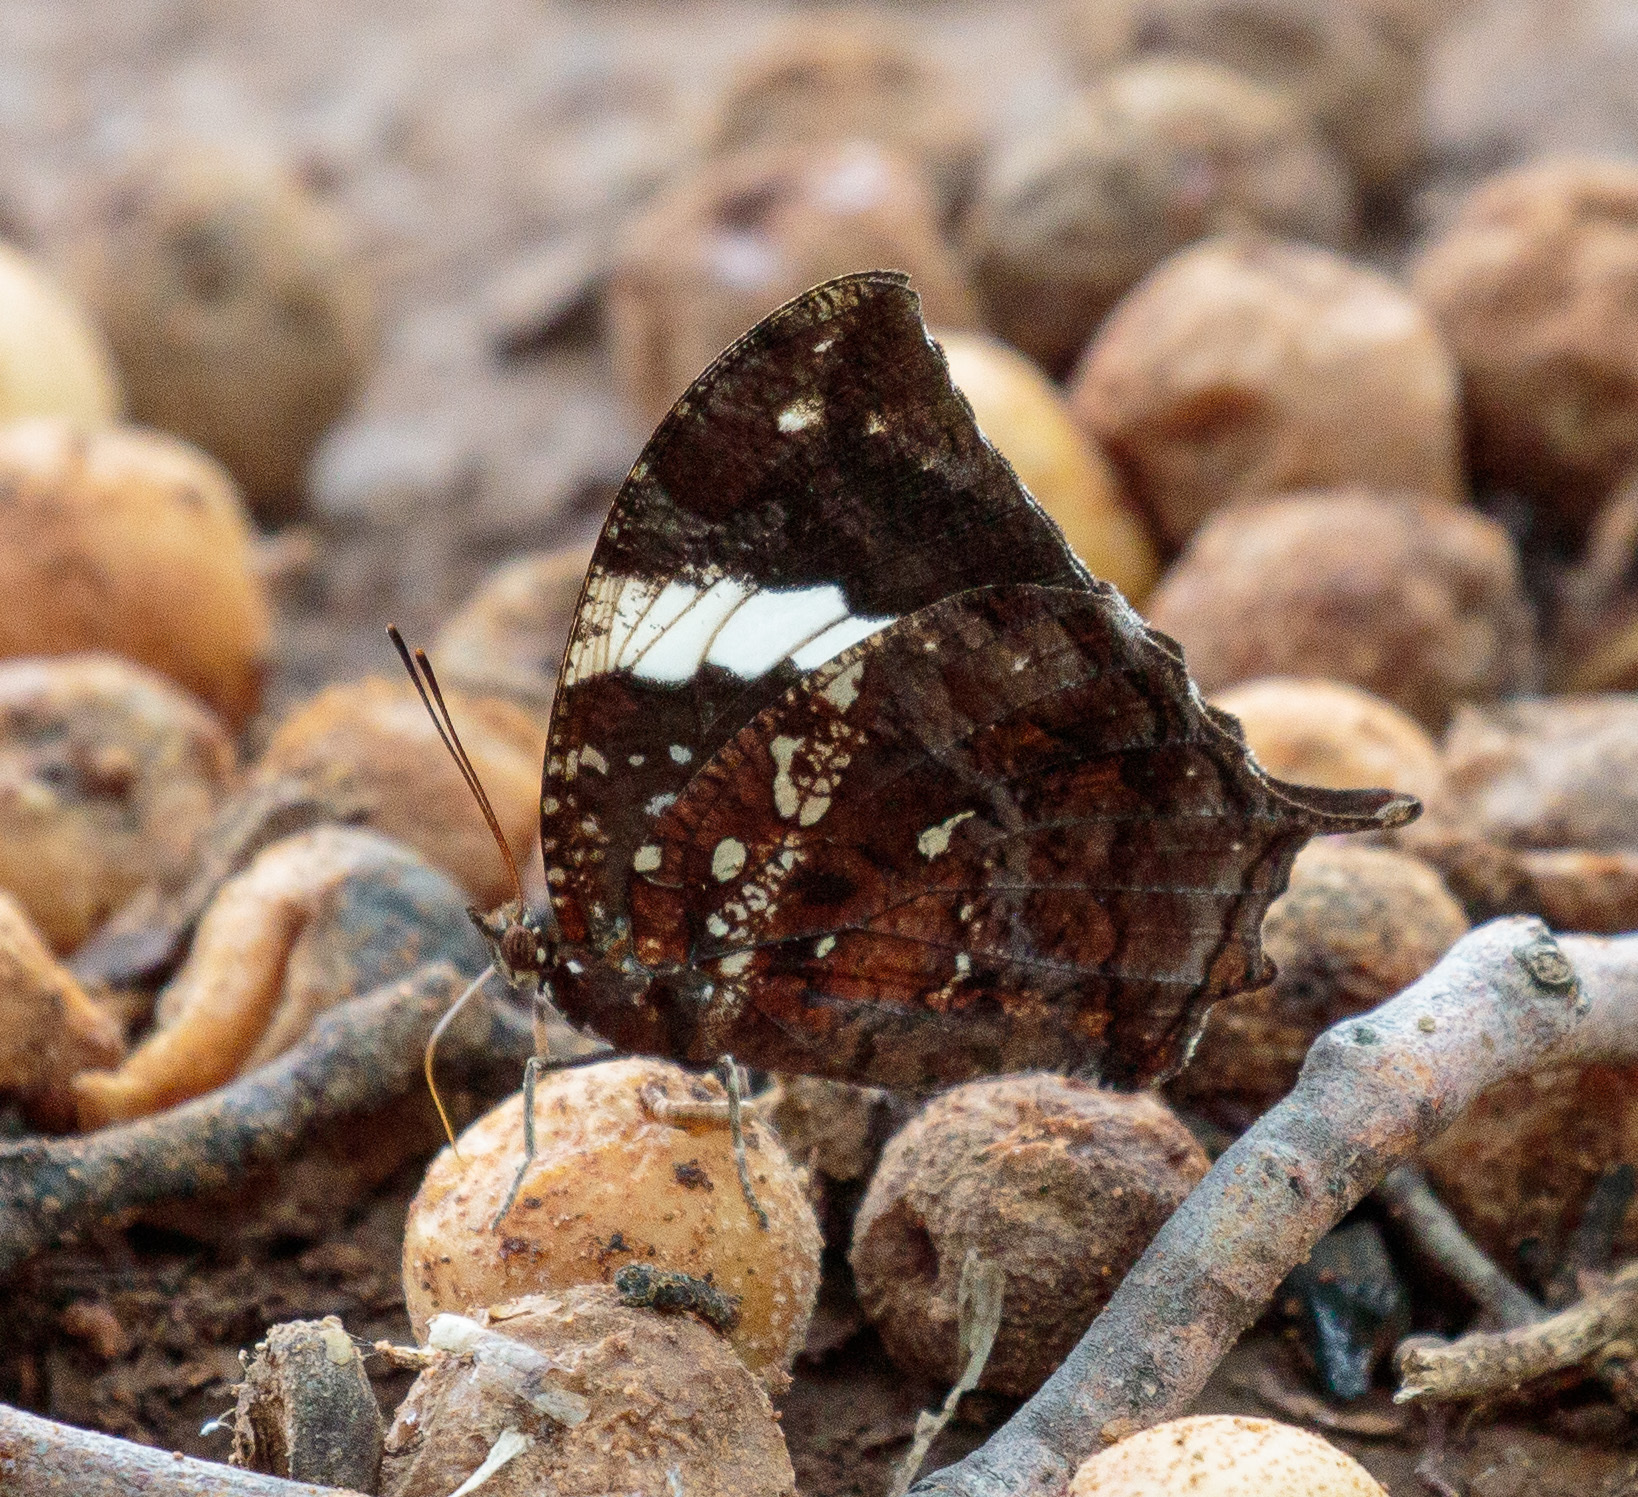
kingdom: Animalia
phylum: Arthropoda
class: Insecta
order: Lepidoptera
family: Nymphalidae
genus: Hypna
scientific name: Hypna clytemnestra
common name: Silver-studded leafwing
